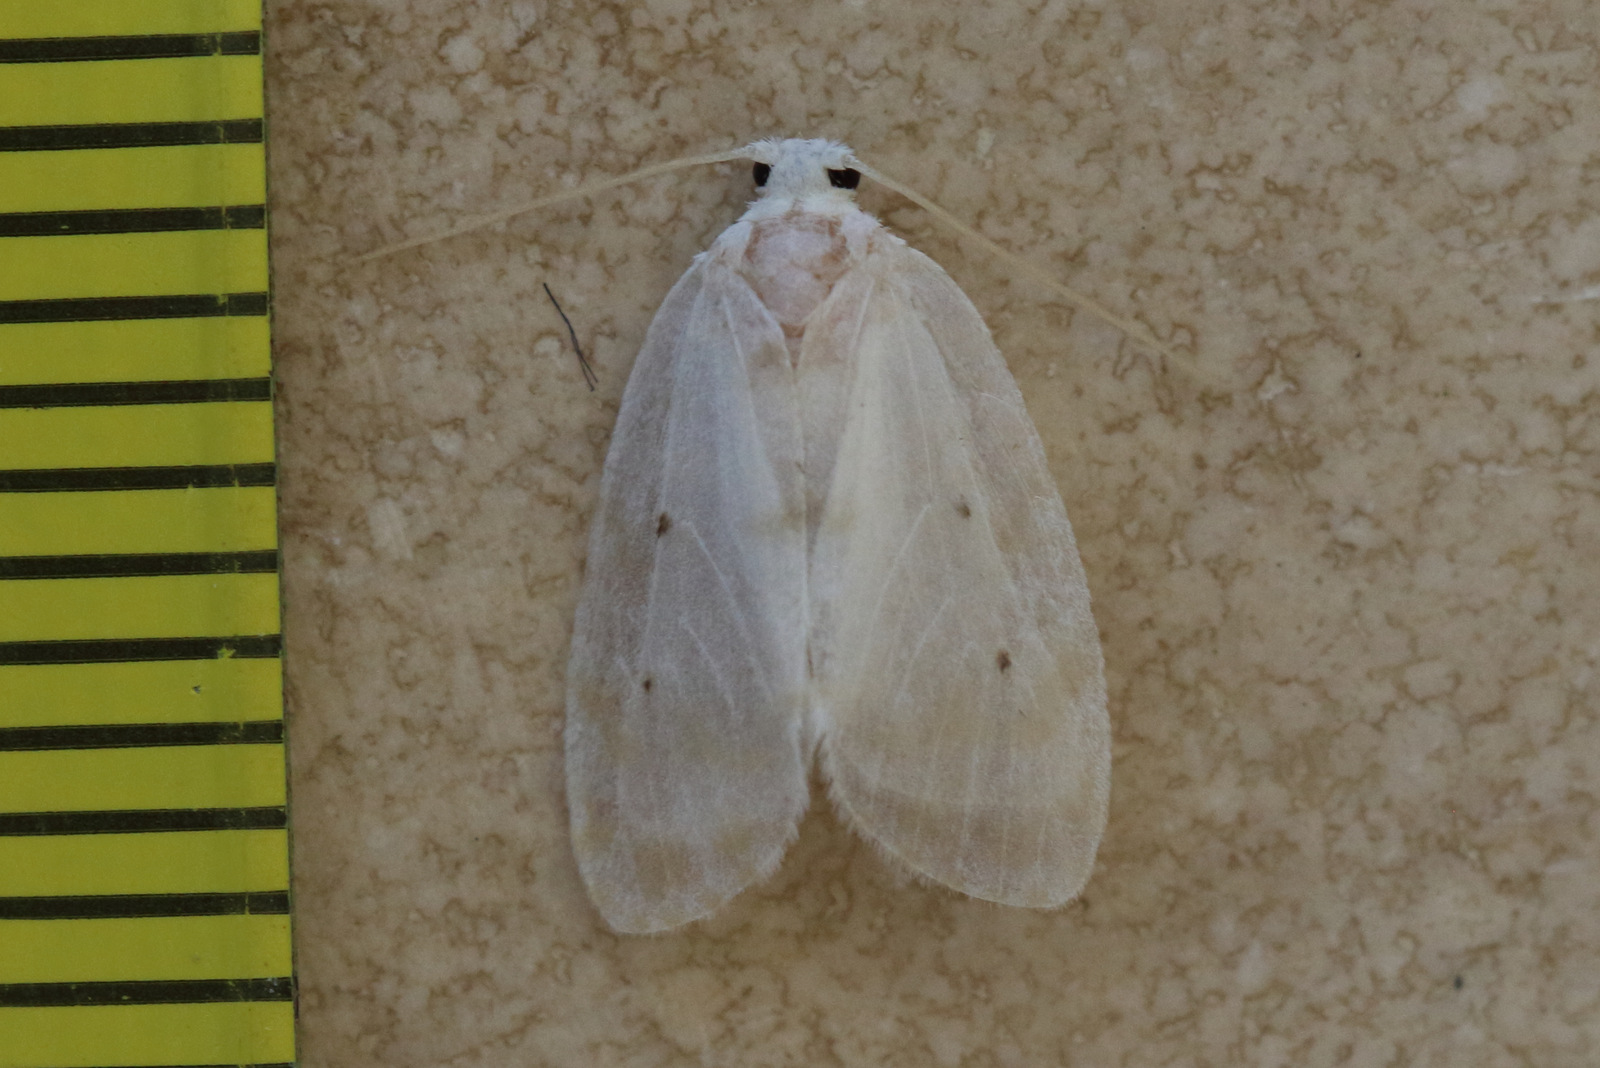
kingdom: Animalia
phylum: Arthropoda
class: Insecta
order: Lepidoptera
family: Erebidae
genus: Schistophleps
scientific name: Schistophleps albida
